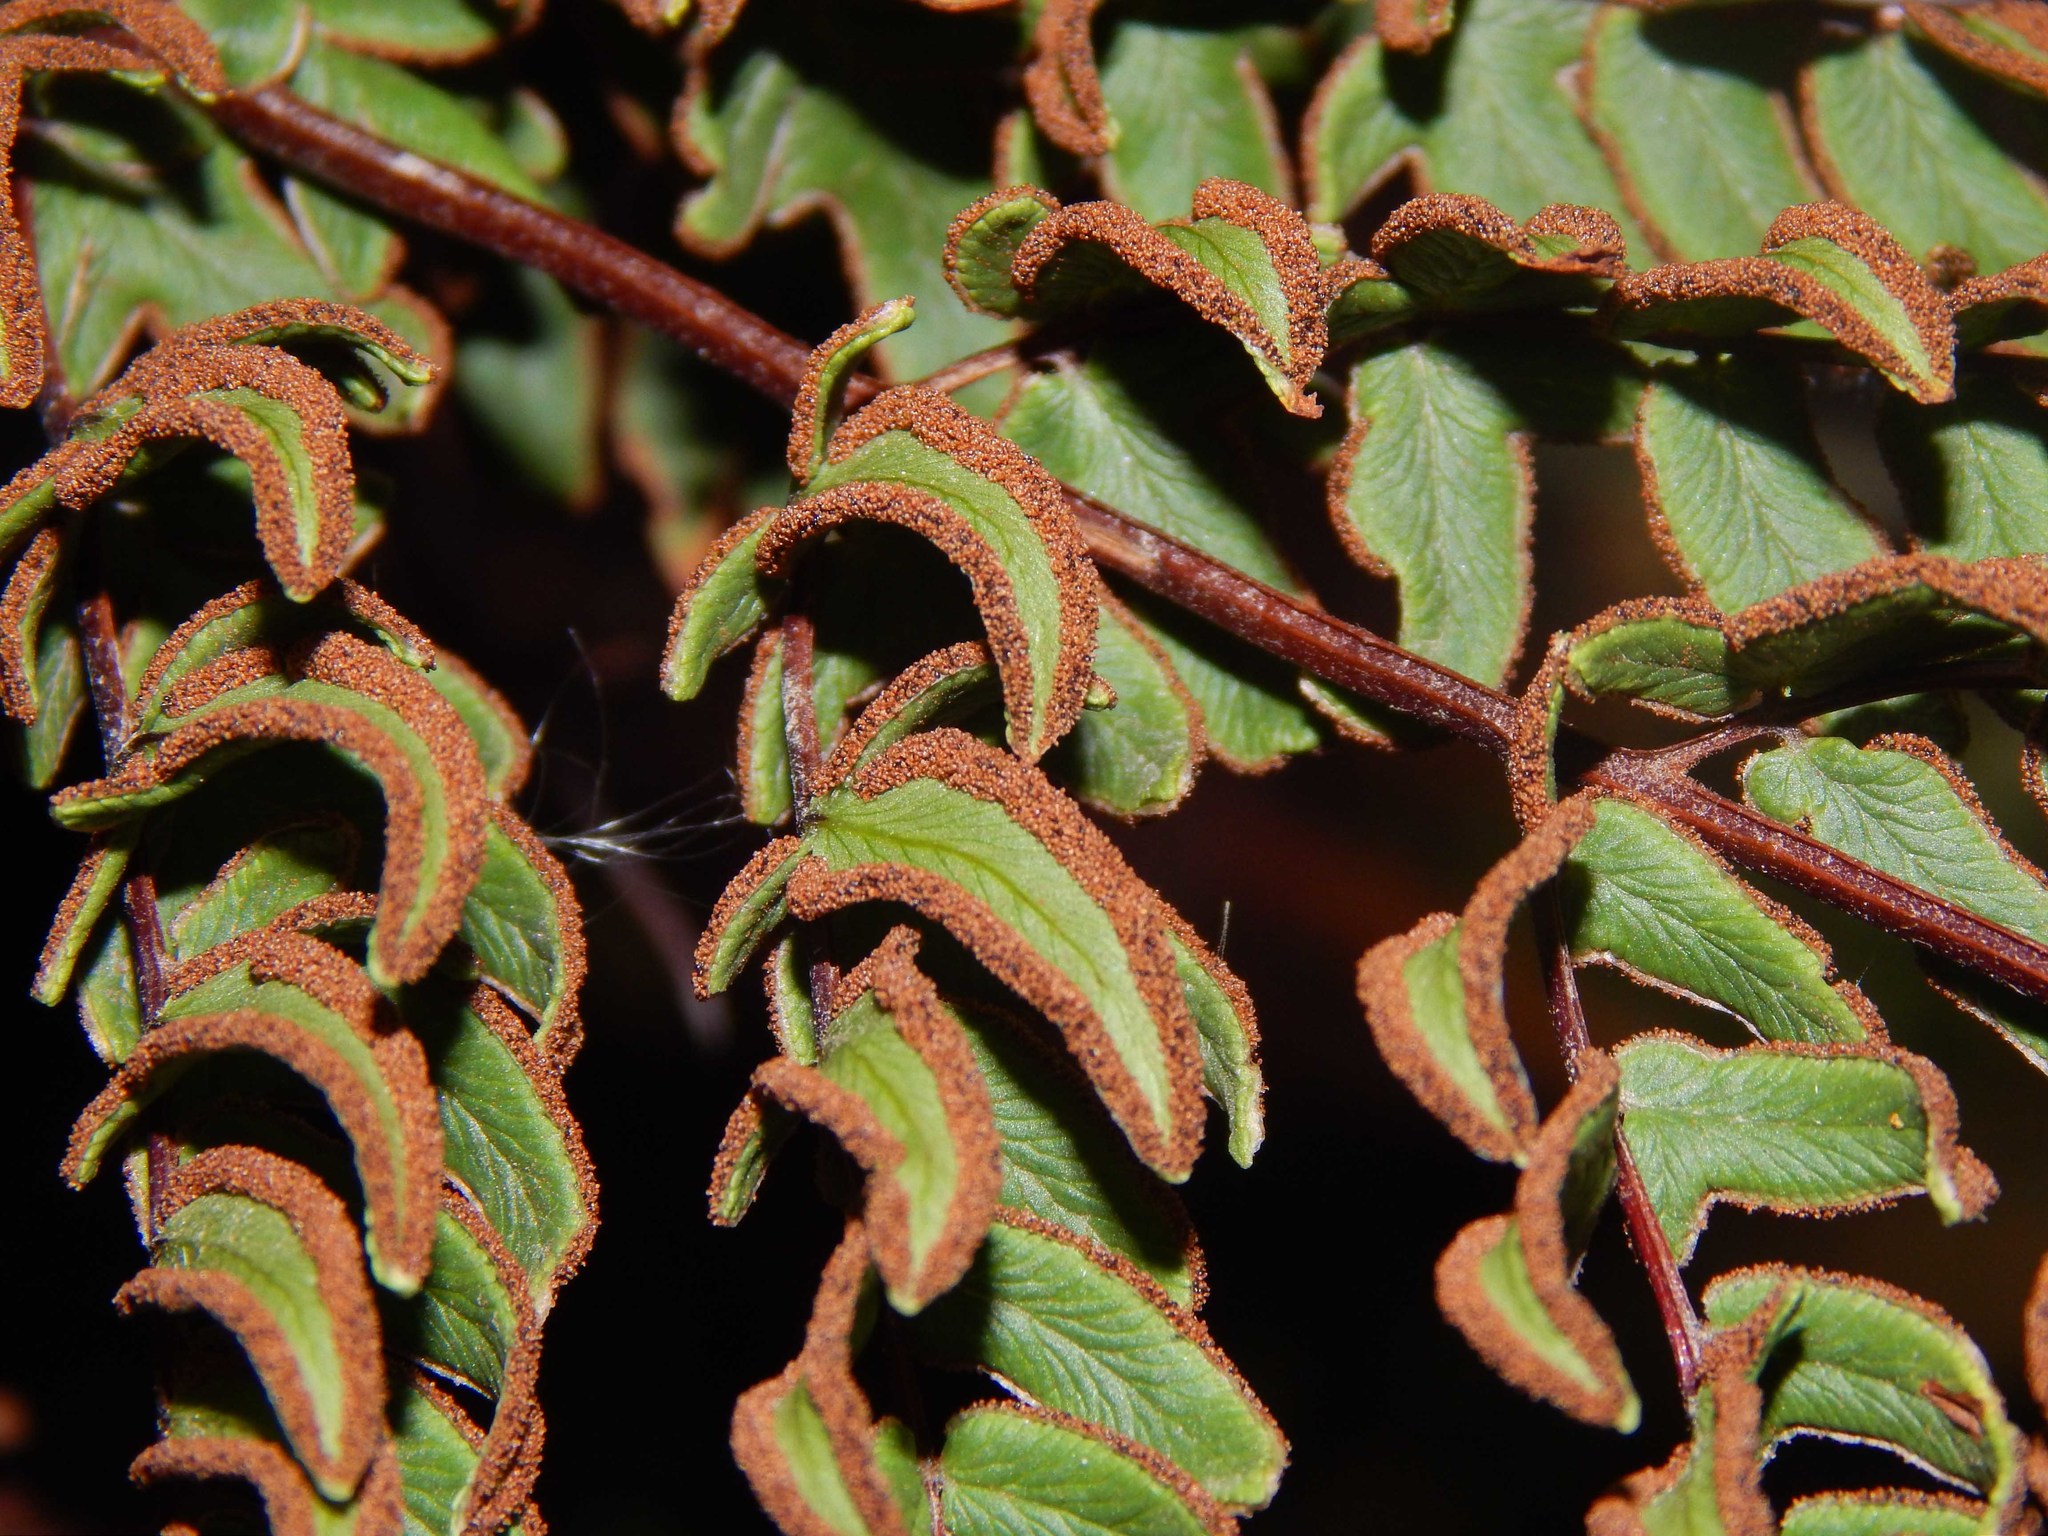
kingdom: Plantae
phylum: Tracheophyta
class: Polypodiopsida
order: Polypodiales
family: Pteridaceae
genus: Pellaea
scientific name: Pellaea pteroides
